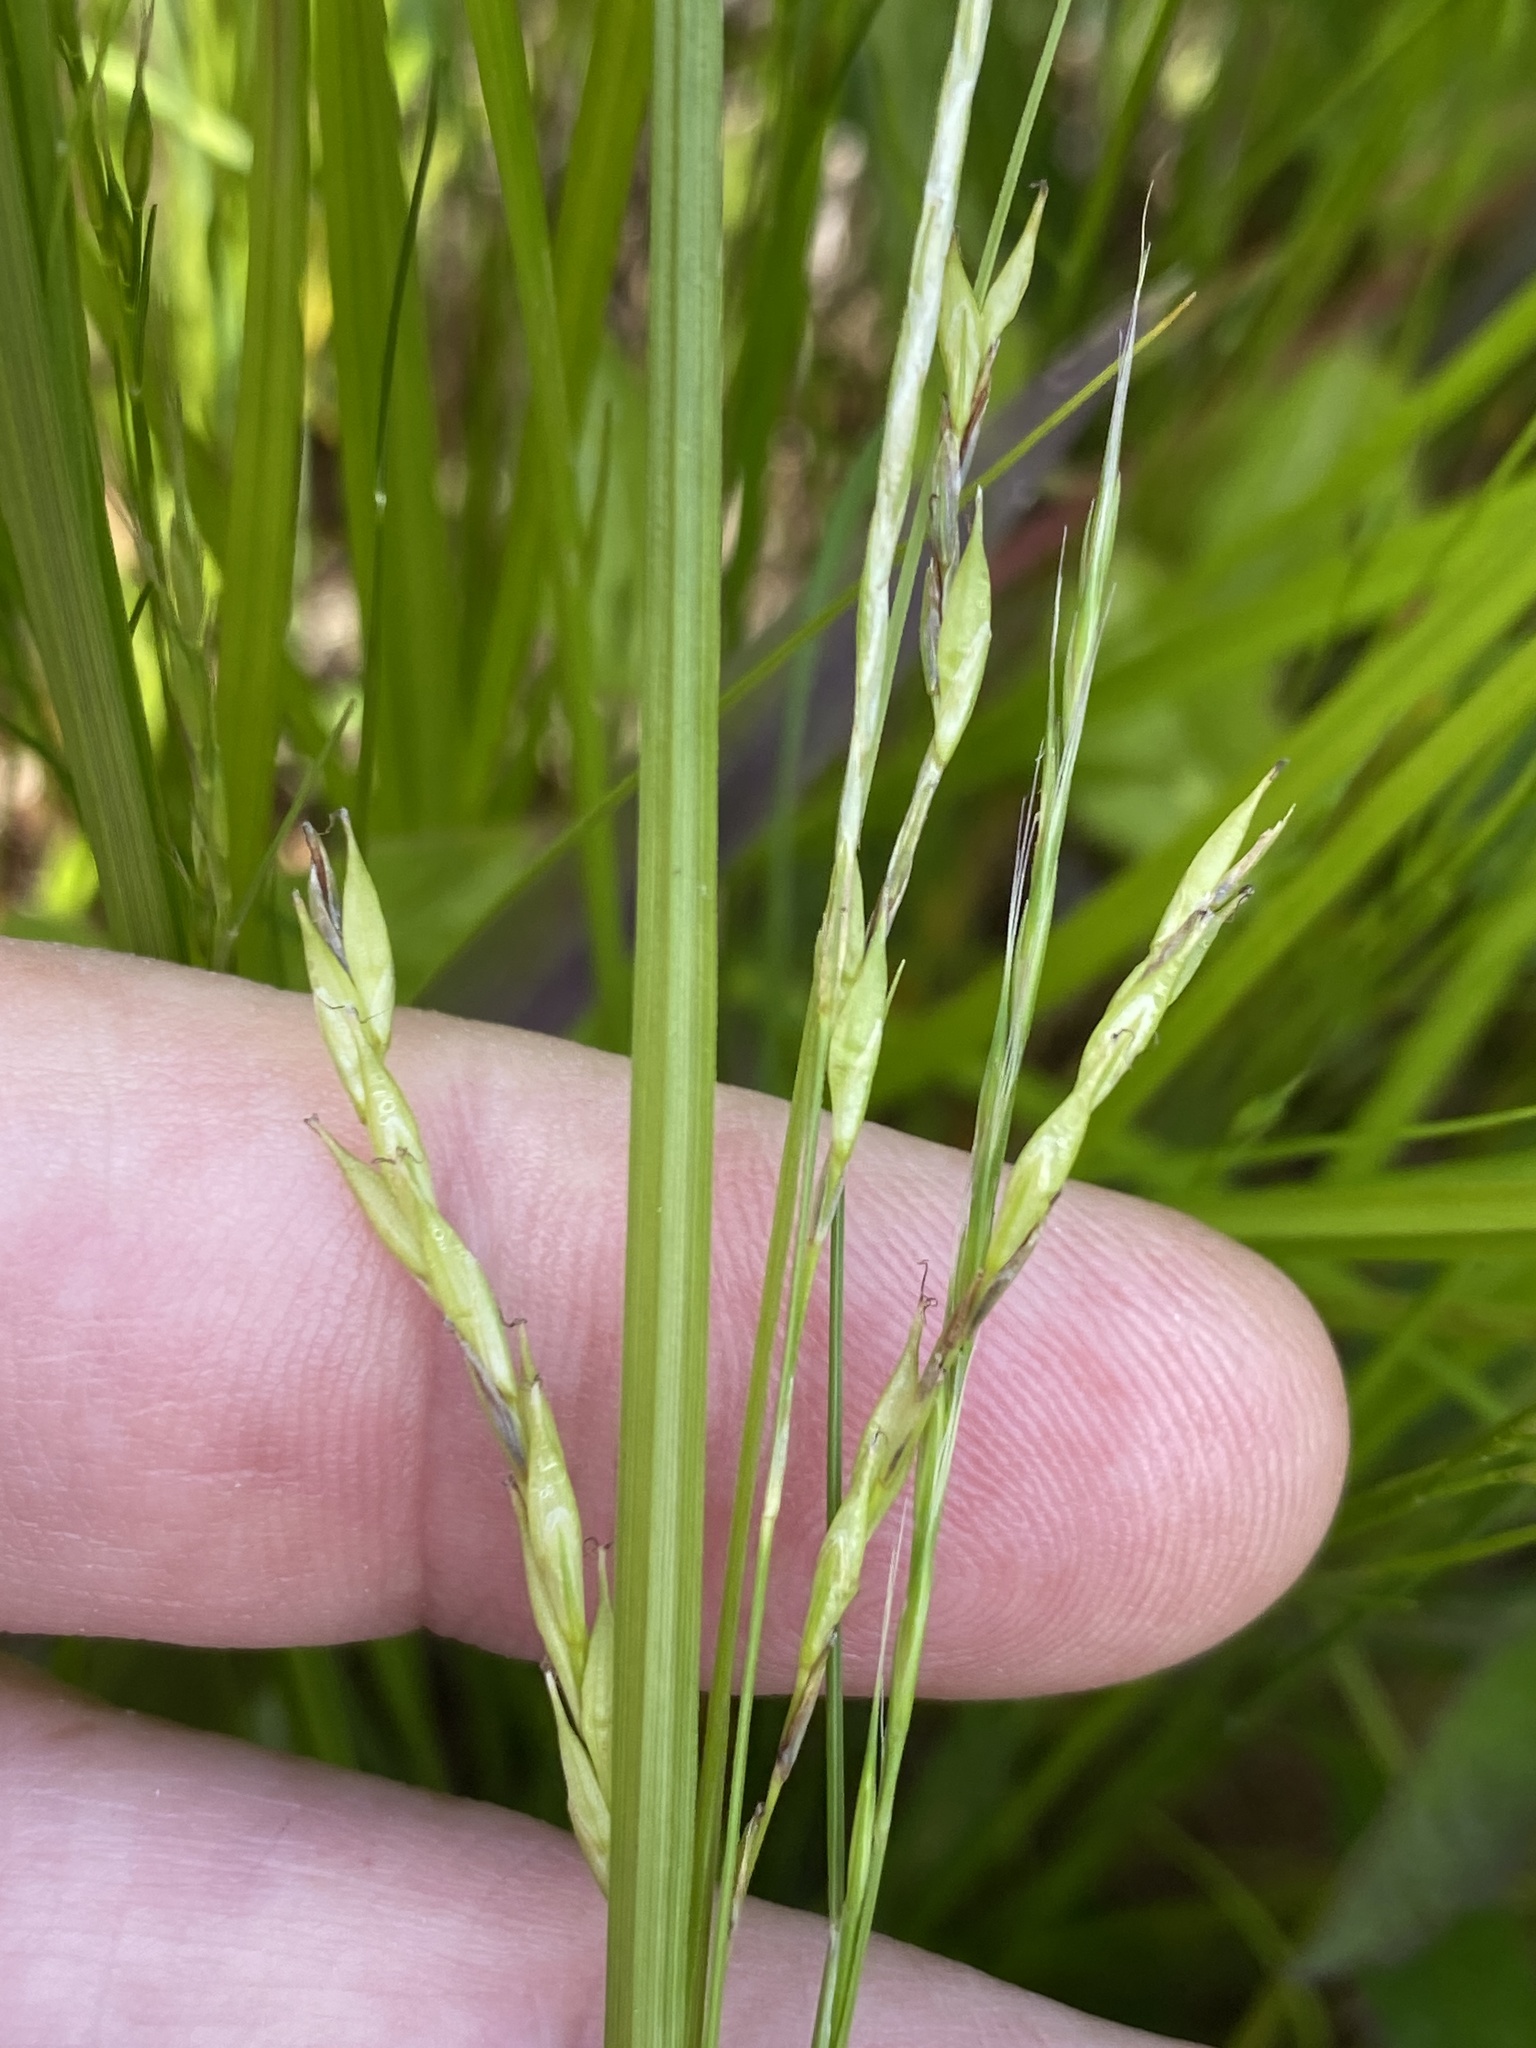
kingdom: Plantae
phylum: Tracheophyta
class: Liliopsida
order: Poales
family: Cyperaceae
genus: Carex
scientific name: Carex debilis
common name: White-edge sedge
